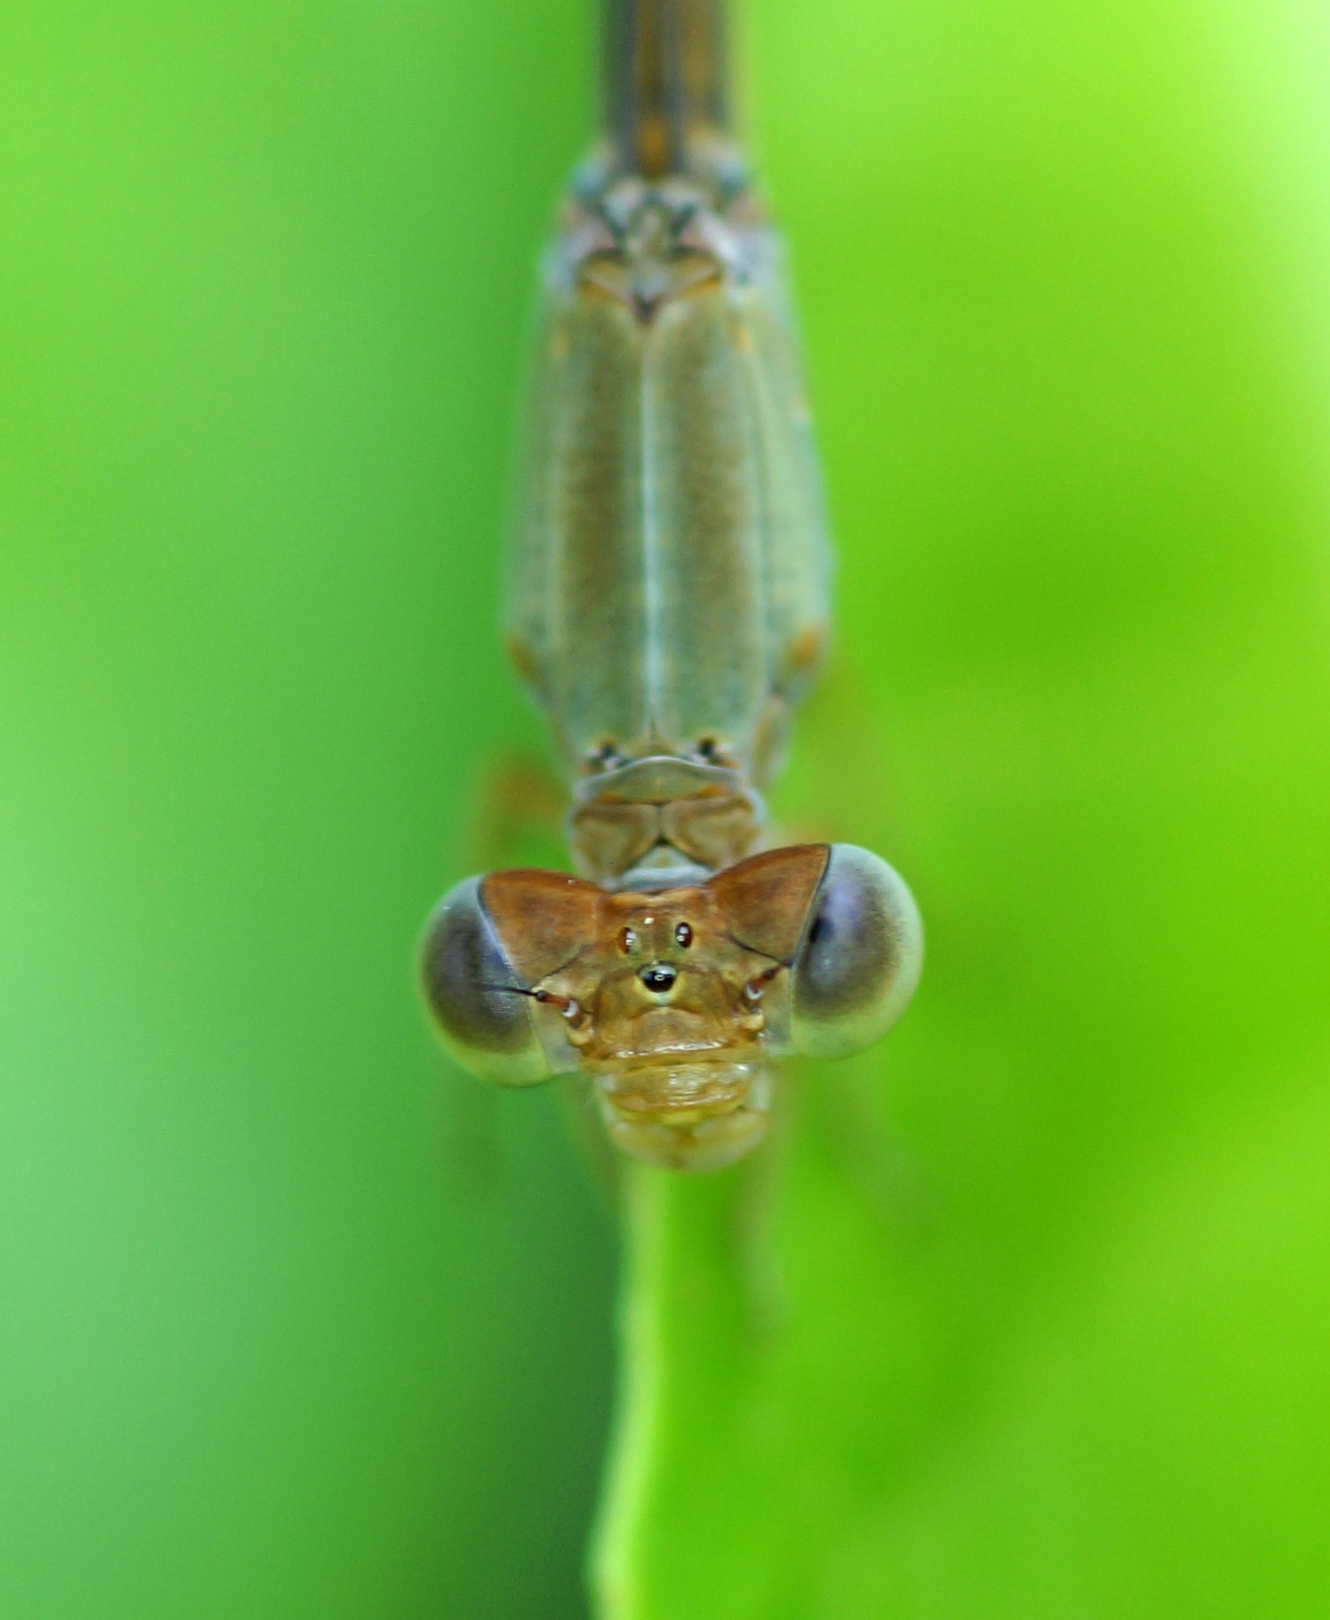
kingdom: Animalia
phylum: Arthropoda
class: Insecta
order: Odonata
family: Coenagrionidae
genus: Ceriagrion
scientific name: Ceriagrion olivaceum
